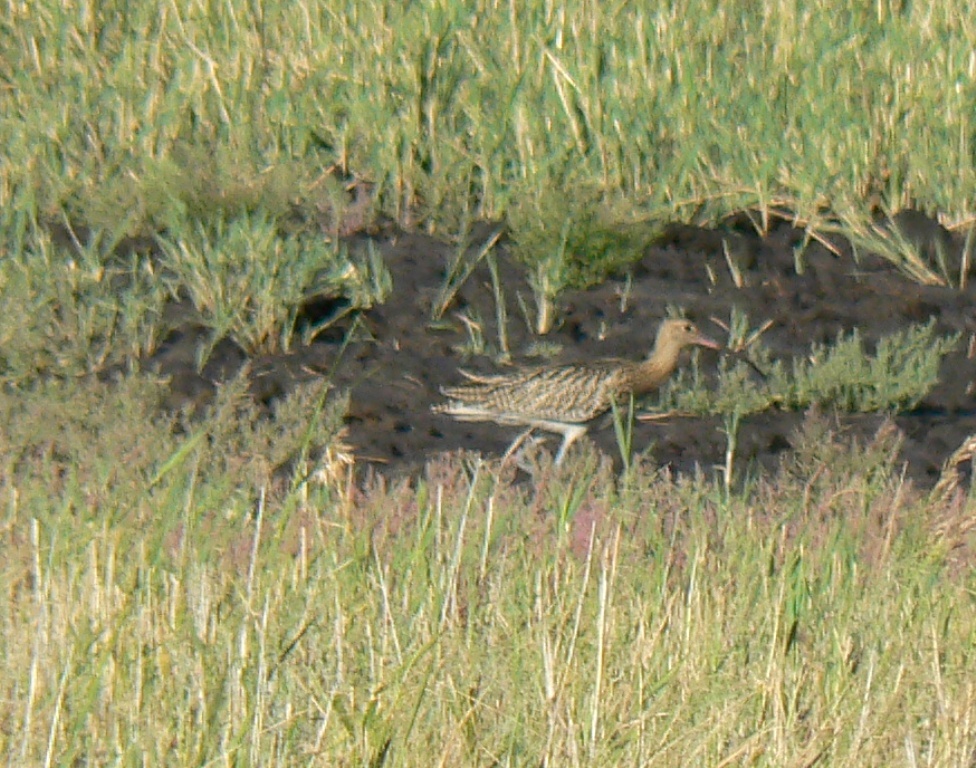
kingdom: Animalia
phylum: Chordata
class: Aves
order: Charadriiformes
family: Scolopacidae
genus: Numenius
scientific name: Numenius arquata
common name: Eurasian curlew
